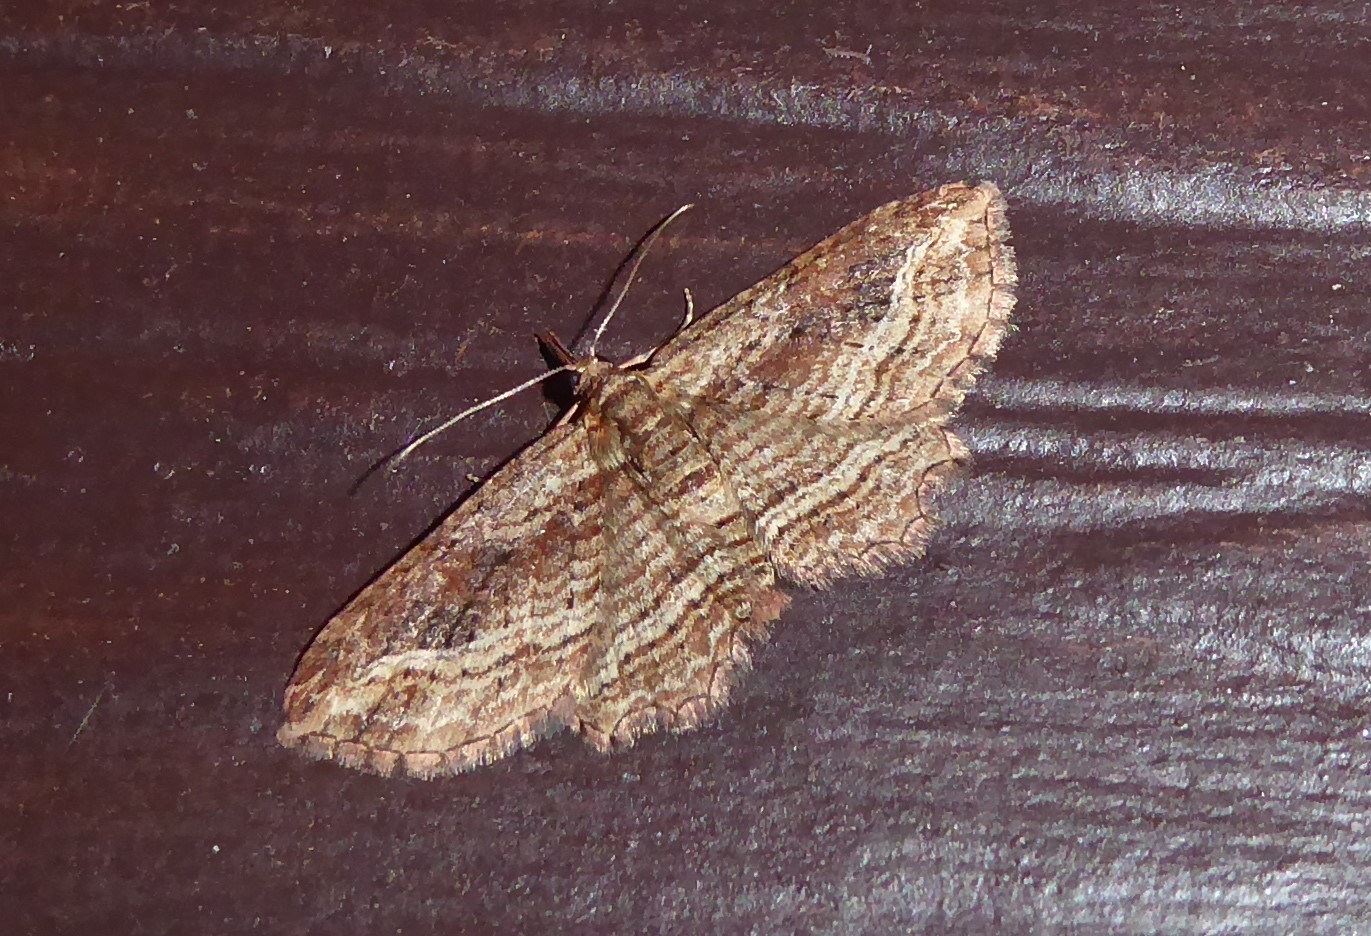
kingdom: Animalia
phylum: Arthropoda
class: Insecta
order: Lepidoptera
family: Geometridae
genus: Chloroclystis
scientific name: Chloroclystis filata
